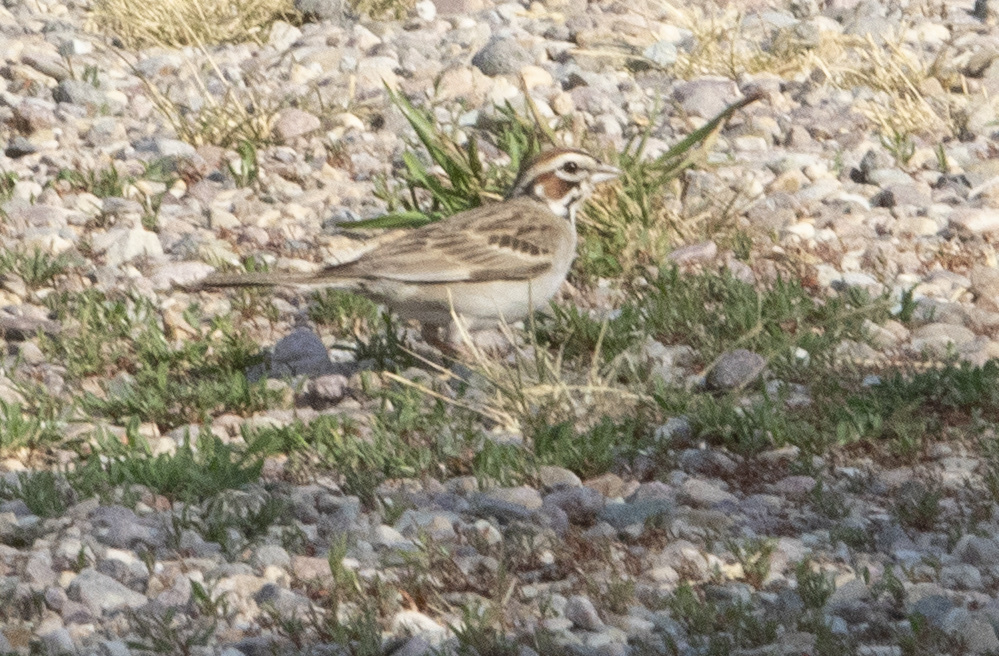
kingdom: Animalia
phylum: Chordata
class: Aves
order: Passeriformes
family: Passerellidae
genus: Chondestes
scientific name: Chondestes grammacus
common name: Lark sparrow
